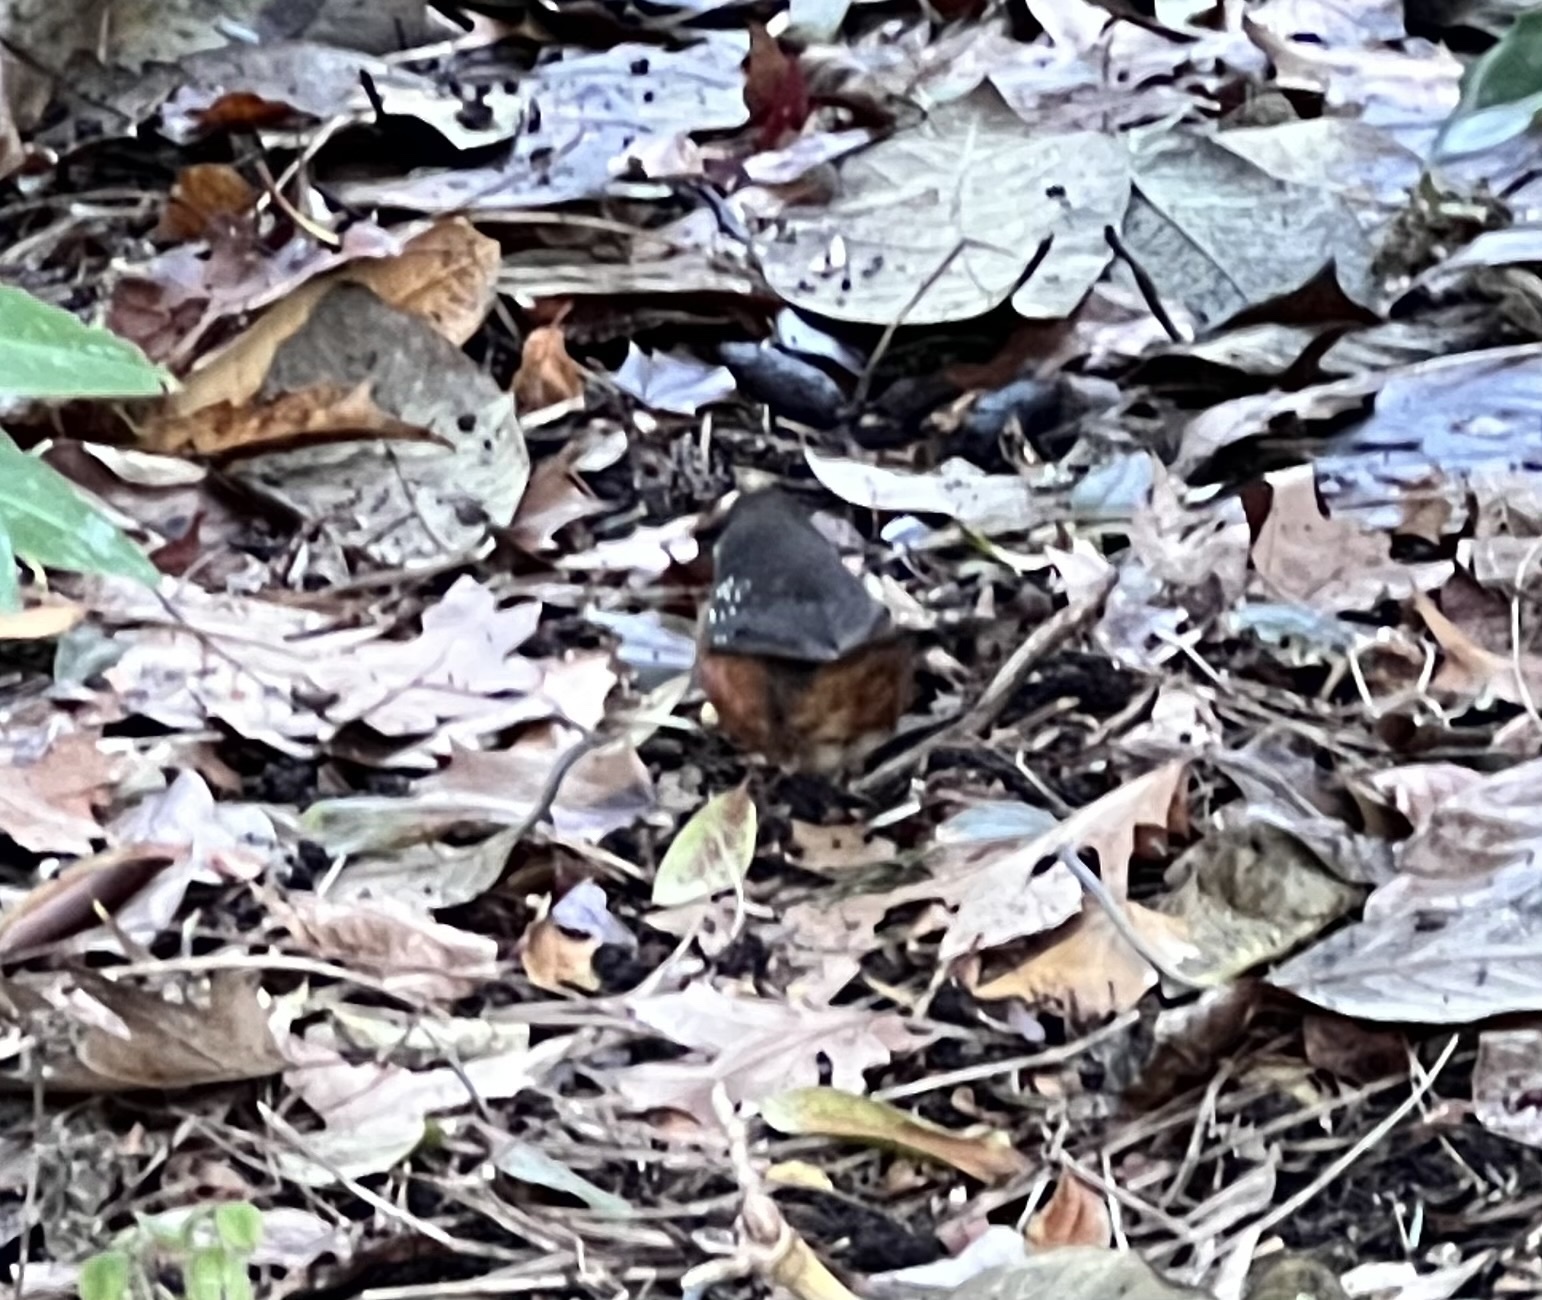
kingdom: Animalia
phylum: Chordata
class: Aves
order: Passeriformes
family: Passerellidae
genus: Pipilo
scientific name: Pipilo maculatus
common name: Spotted towhee
